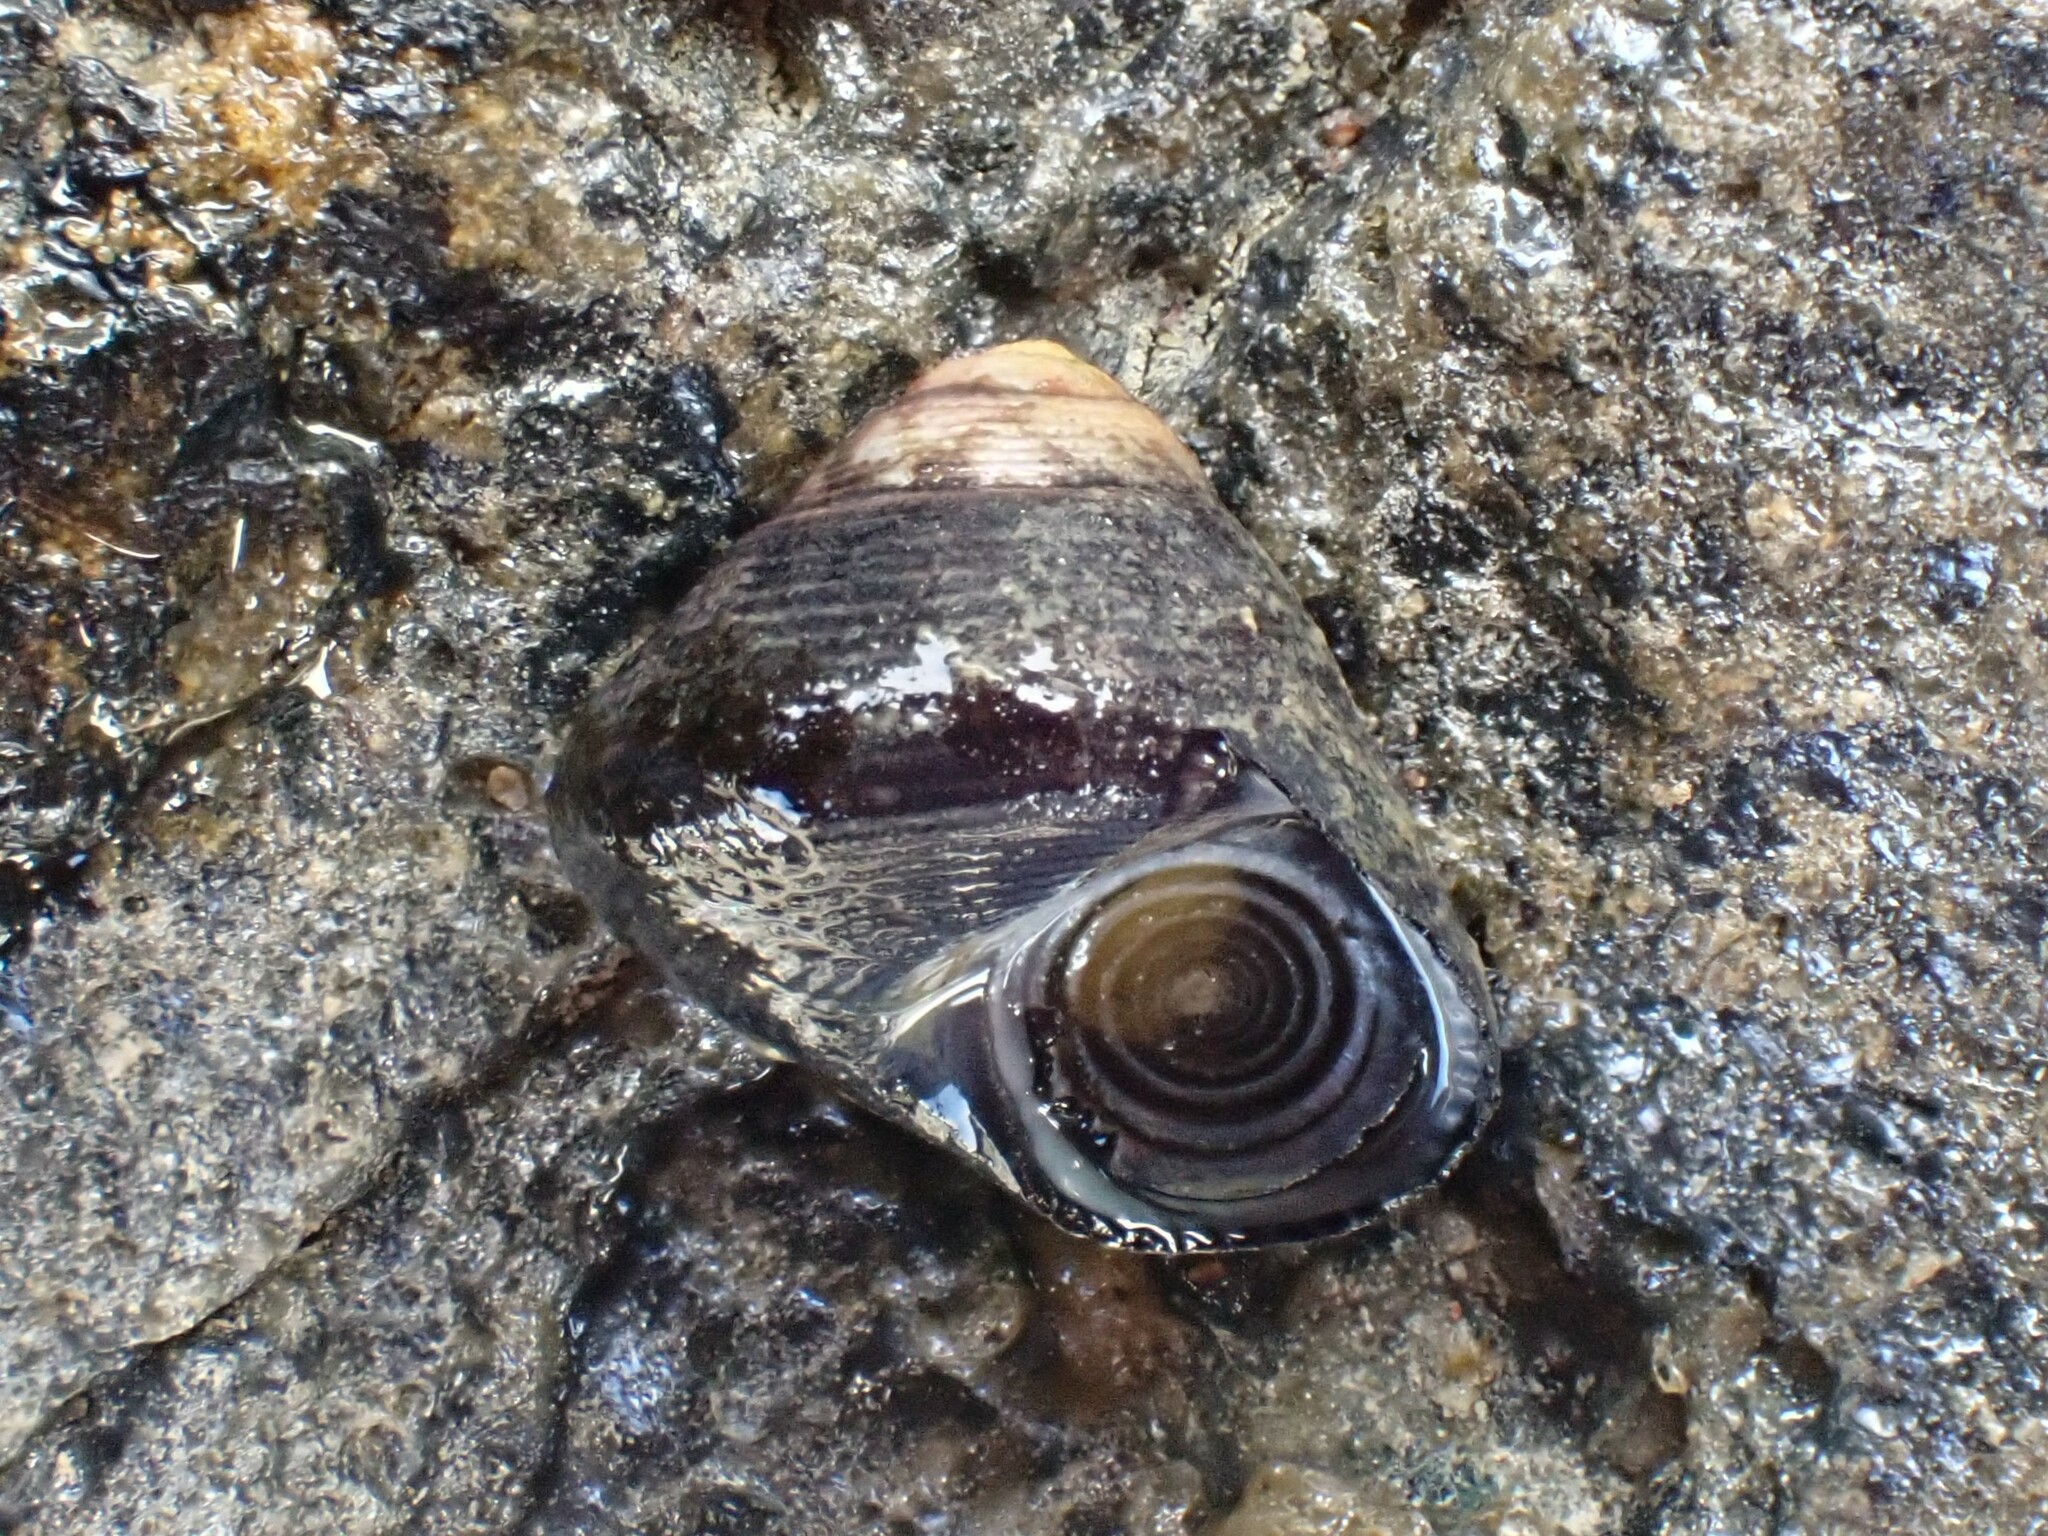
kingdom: Animalia
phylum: Mollusca
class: Gastropoda
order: Trochida
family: Trochidae
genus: Micrelenchus
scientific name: Micrelenchus huttonii
